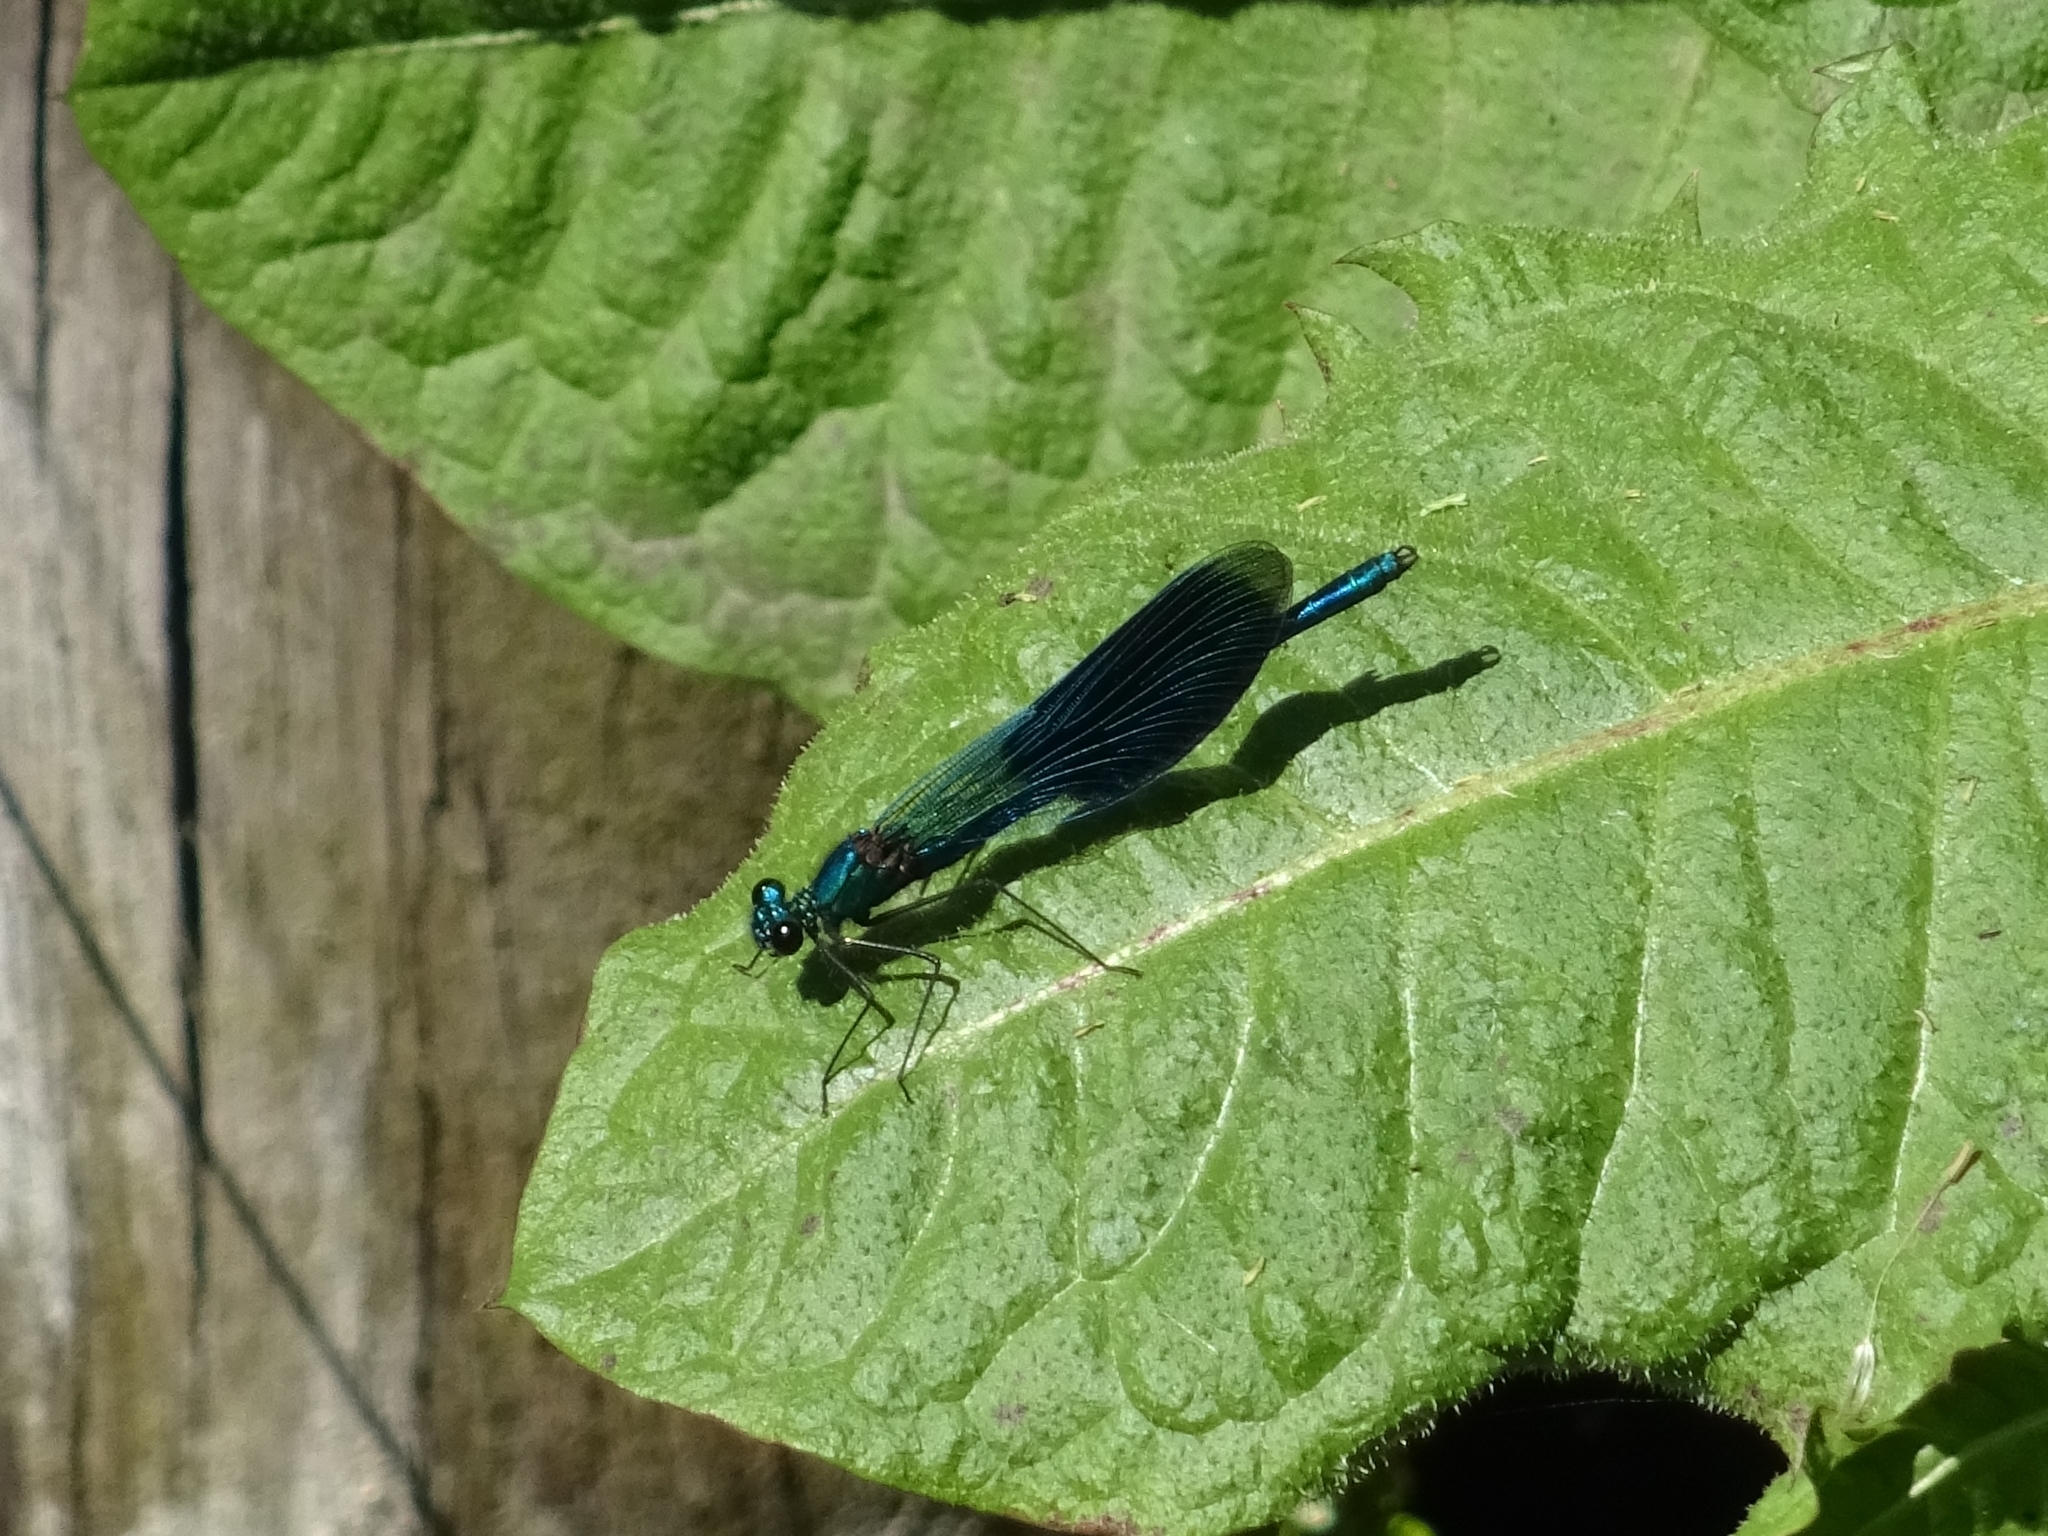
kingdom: Animalia
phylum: Arthropoda
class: Insecta
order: Odonata
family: Calopterygidae
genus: Calopteryx
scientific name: Calopteryx splendens
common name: Banded demoiselle
